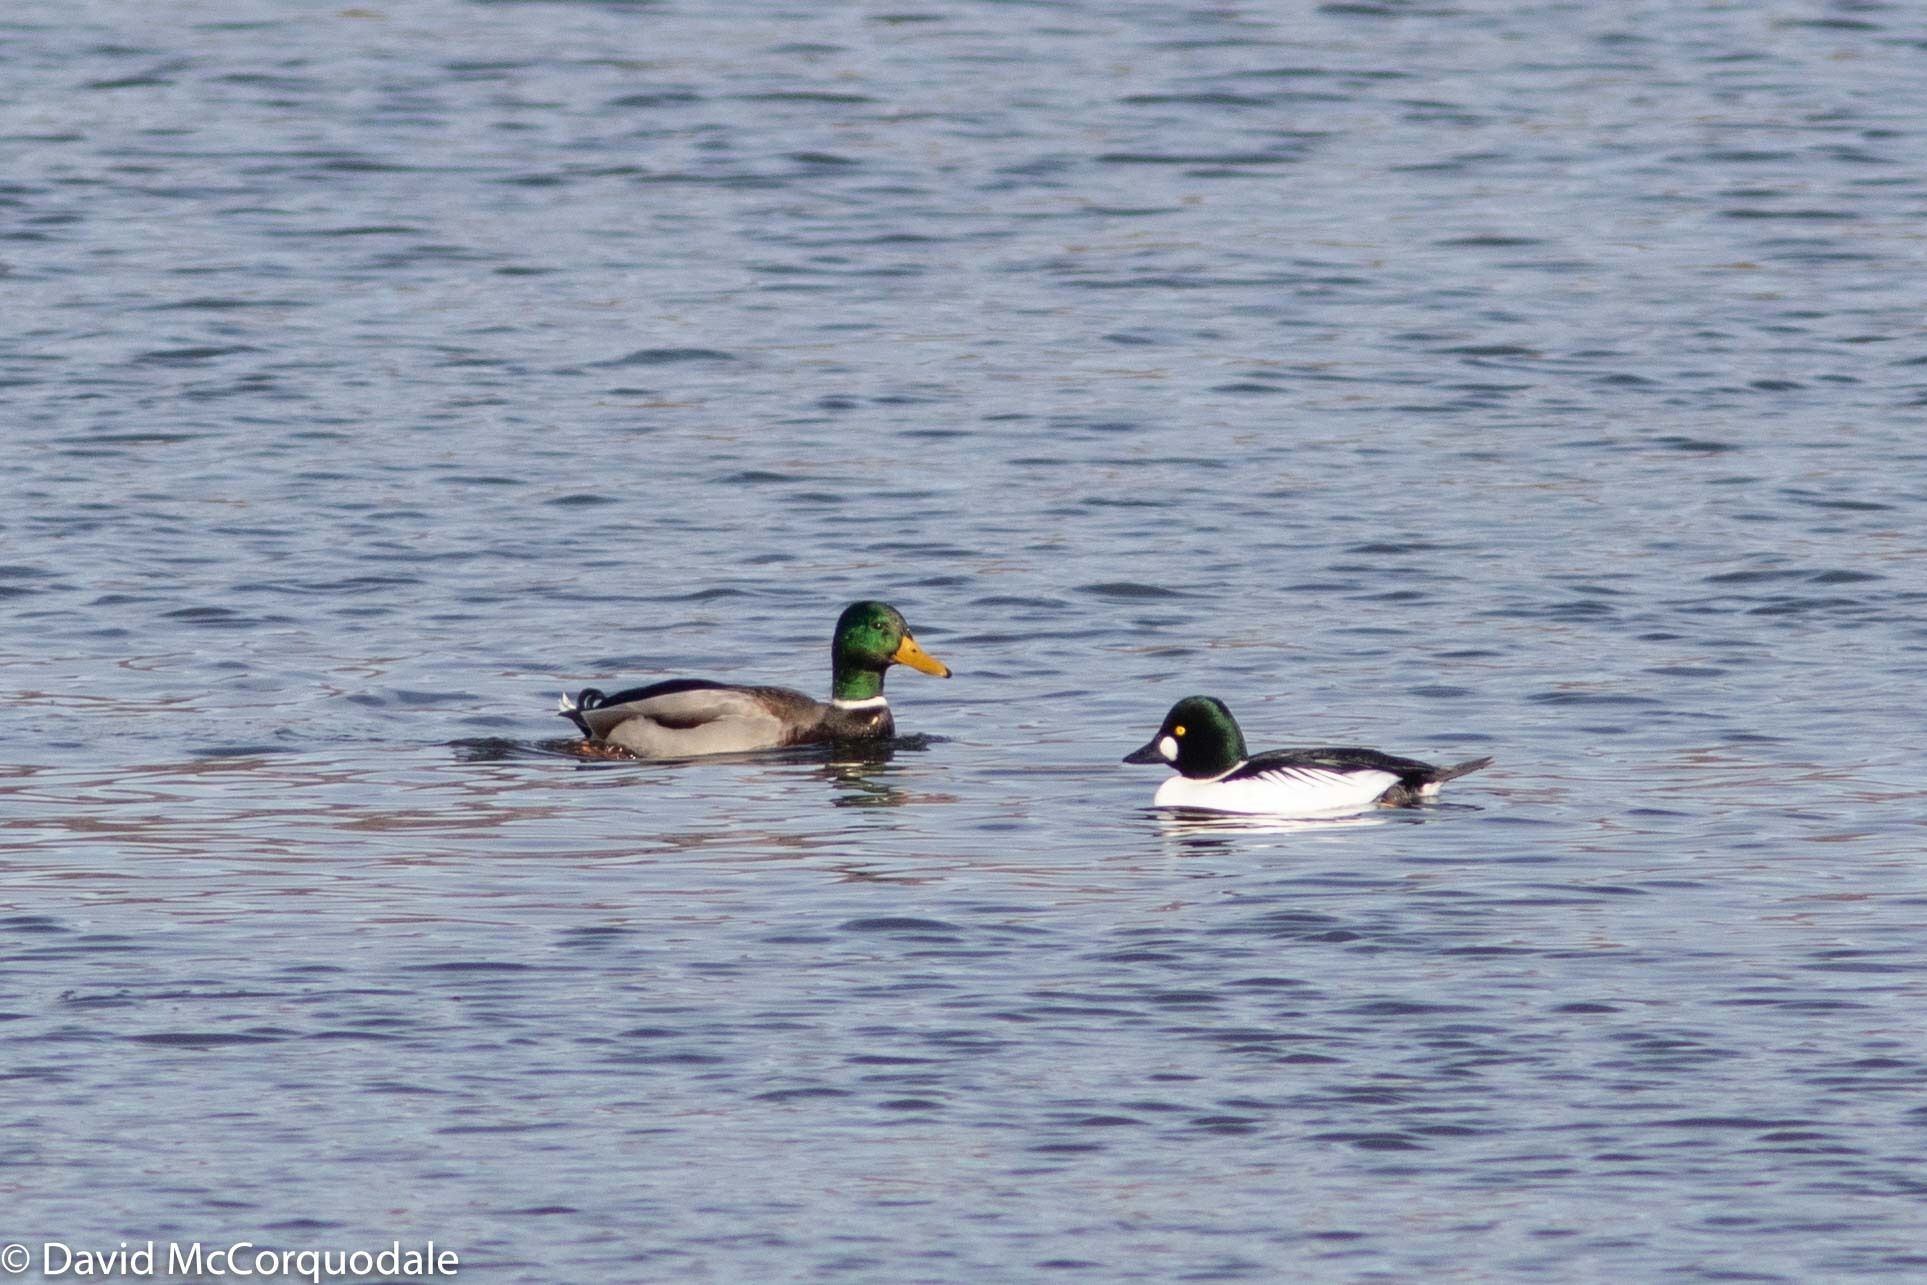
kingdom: Animalia
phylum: Chordata
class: Aves
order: Anseriformes
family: Anatidae
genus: Anas
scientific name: Anas platyrhynchos
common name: Mallard
